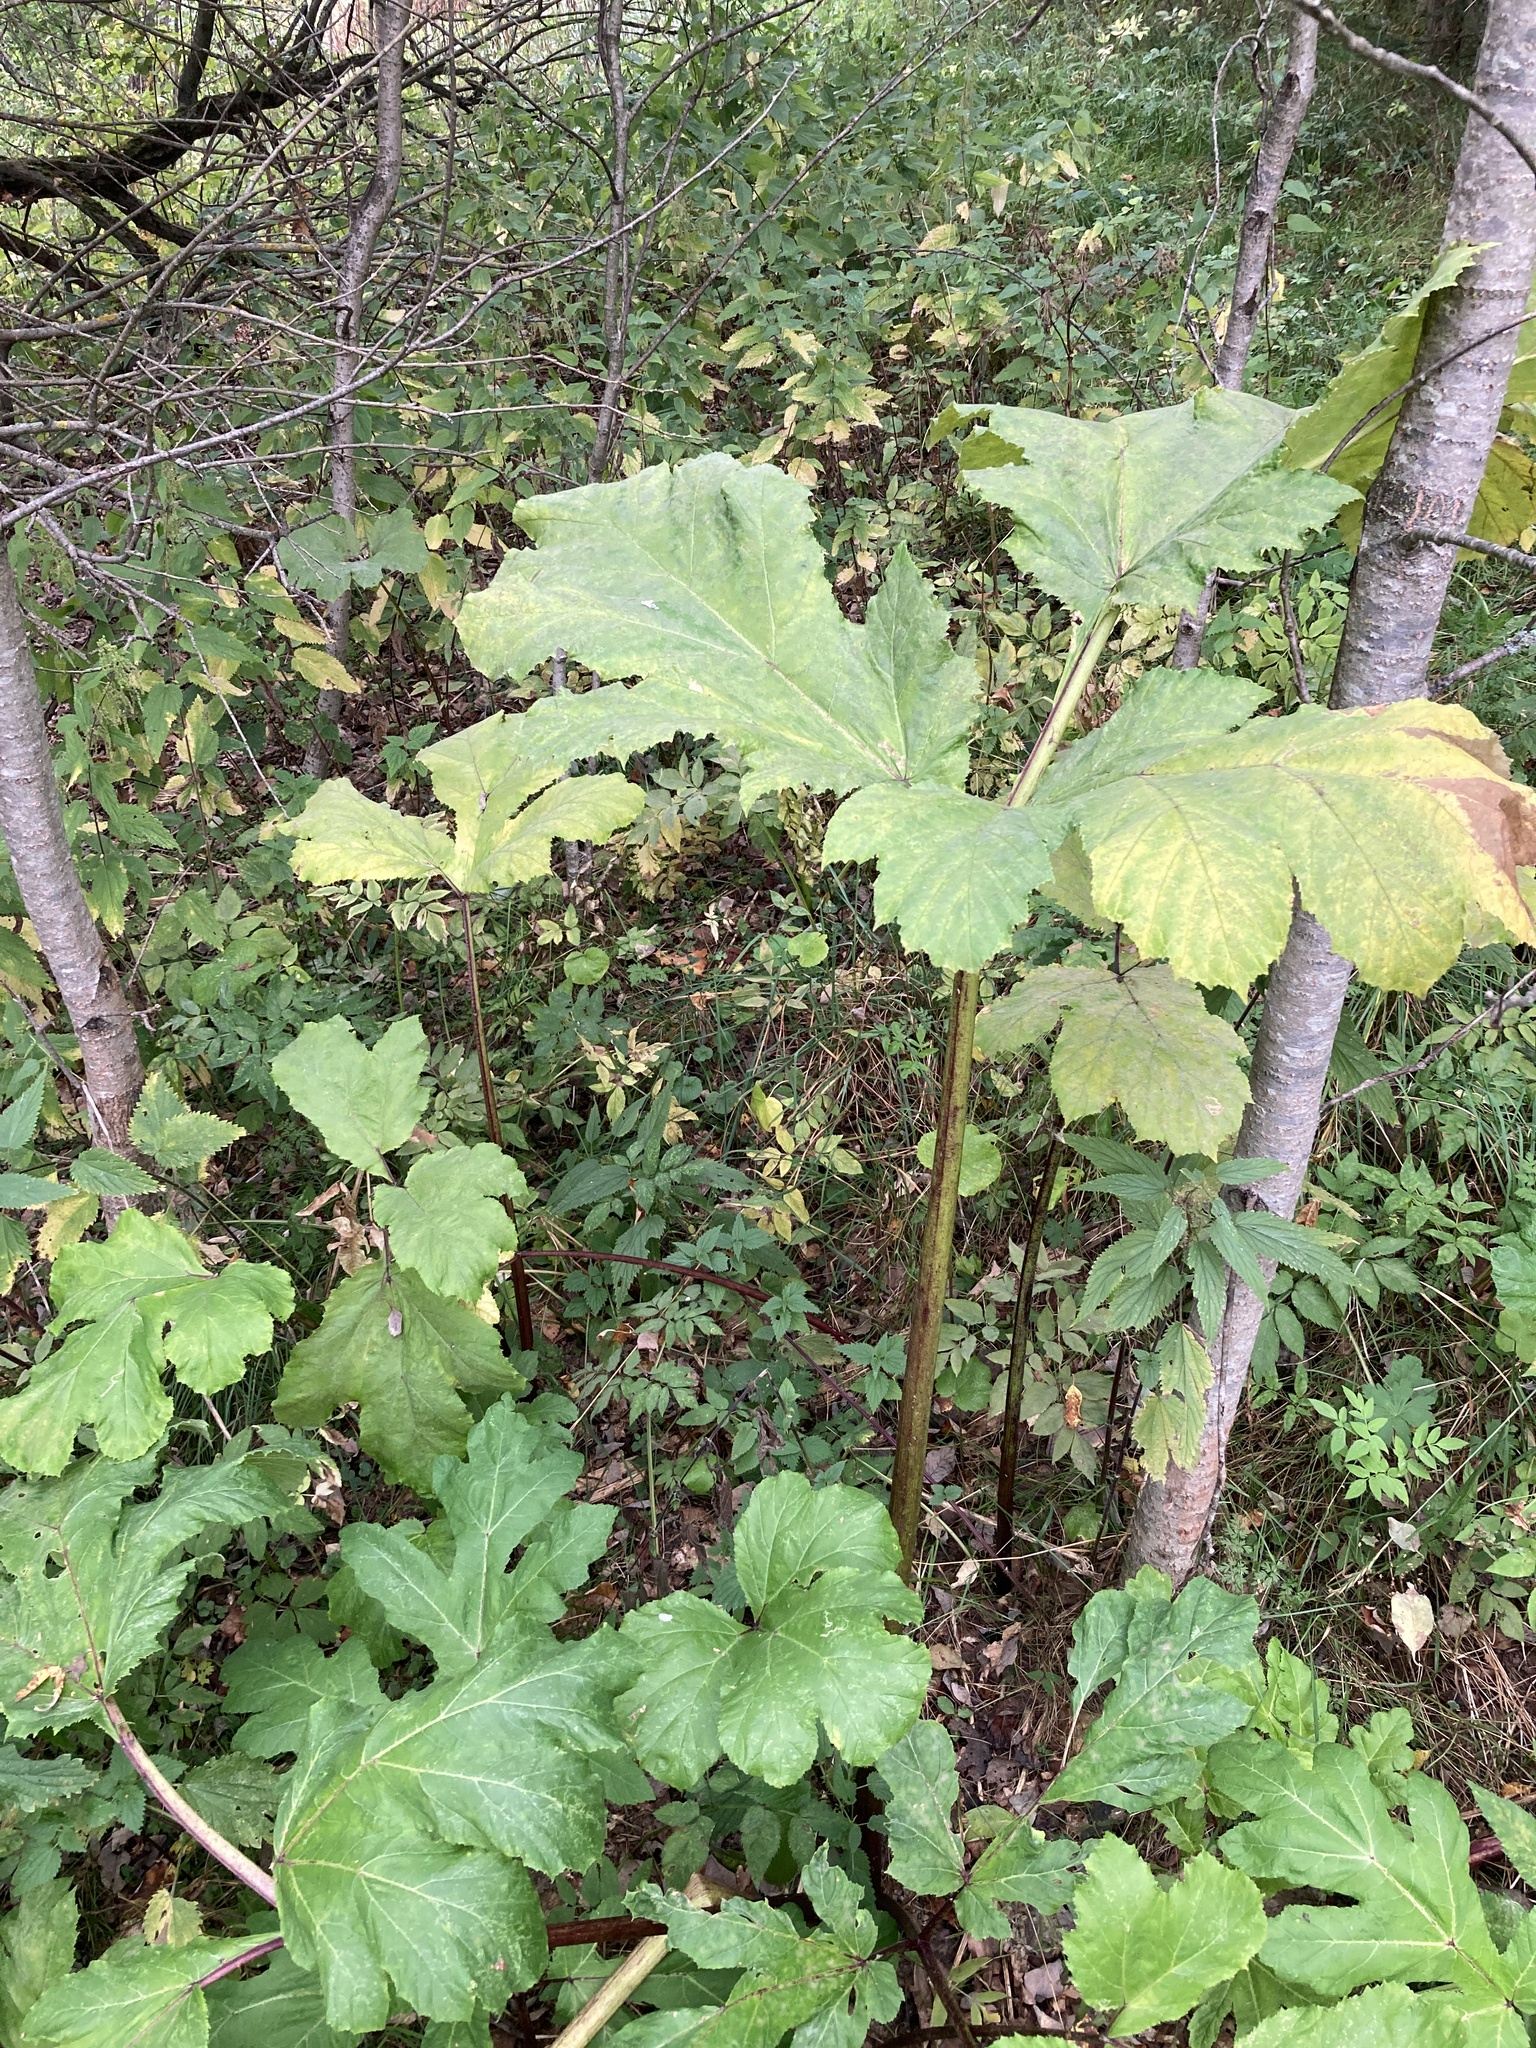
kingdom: Plantae
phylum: Tracheophyta
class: Magnoliopsida
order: Apiales
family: Apiaceae
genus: Heracleum
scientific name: Heracleum sosnowskyi
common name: Sosnowsky's hogweed
